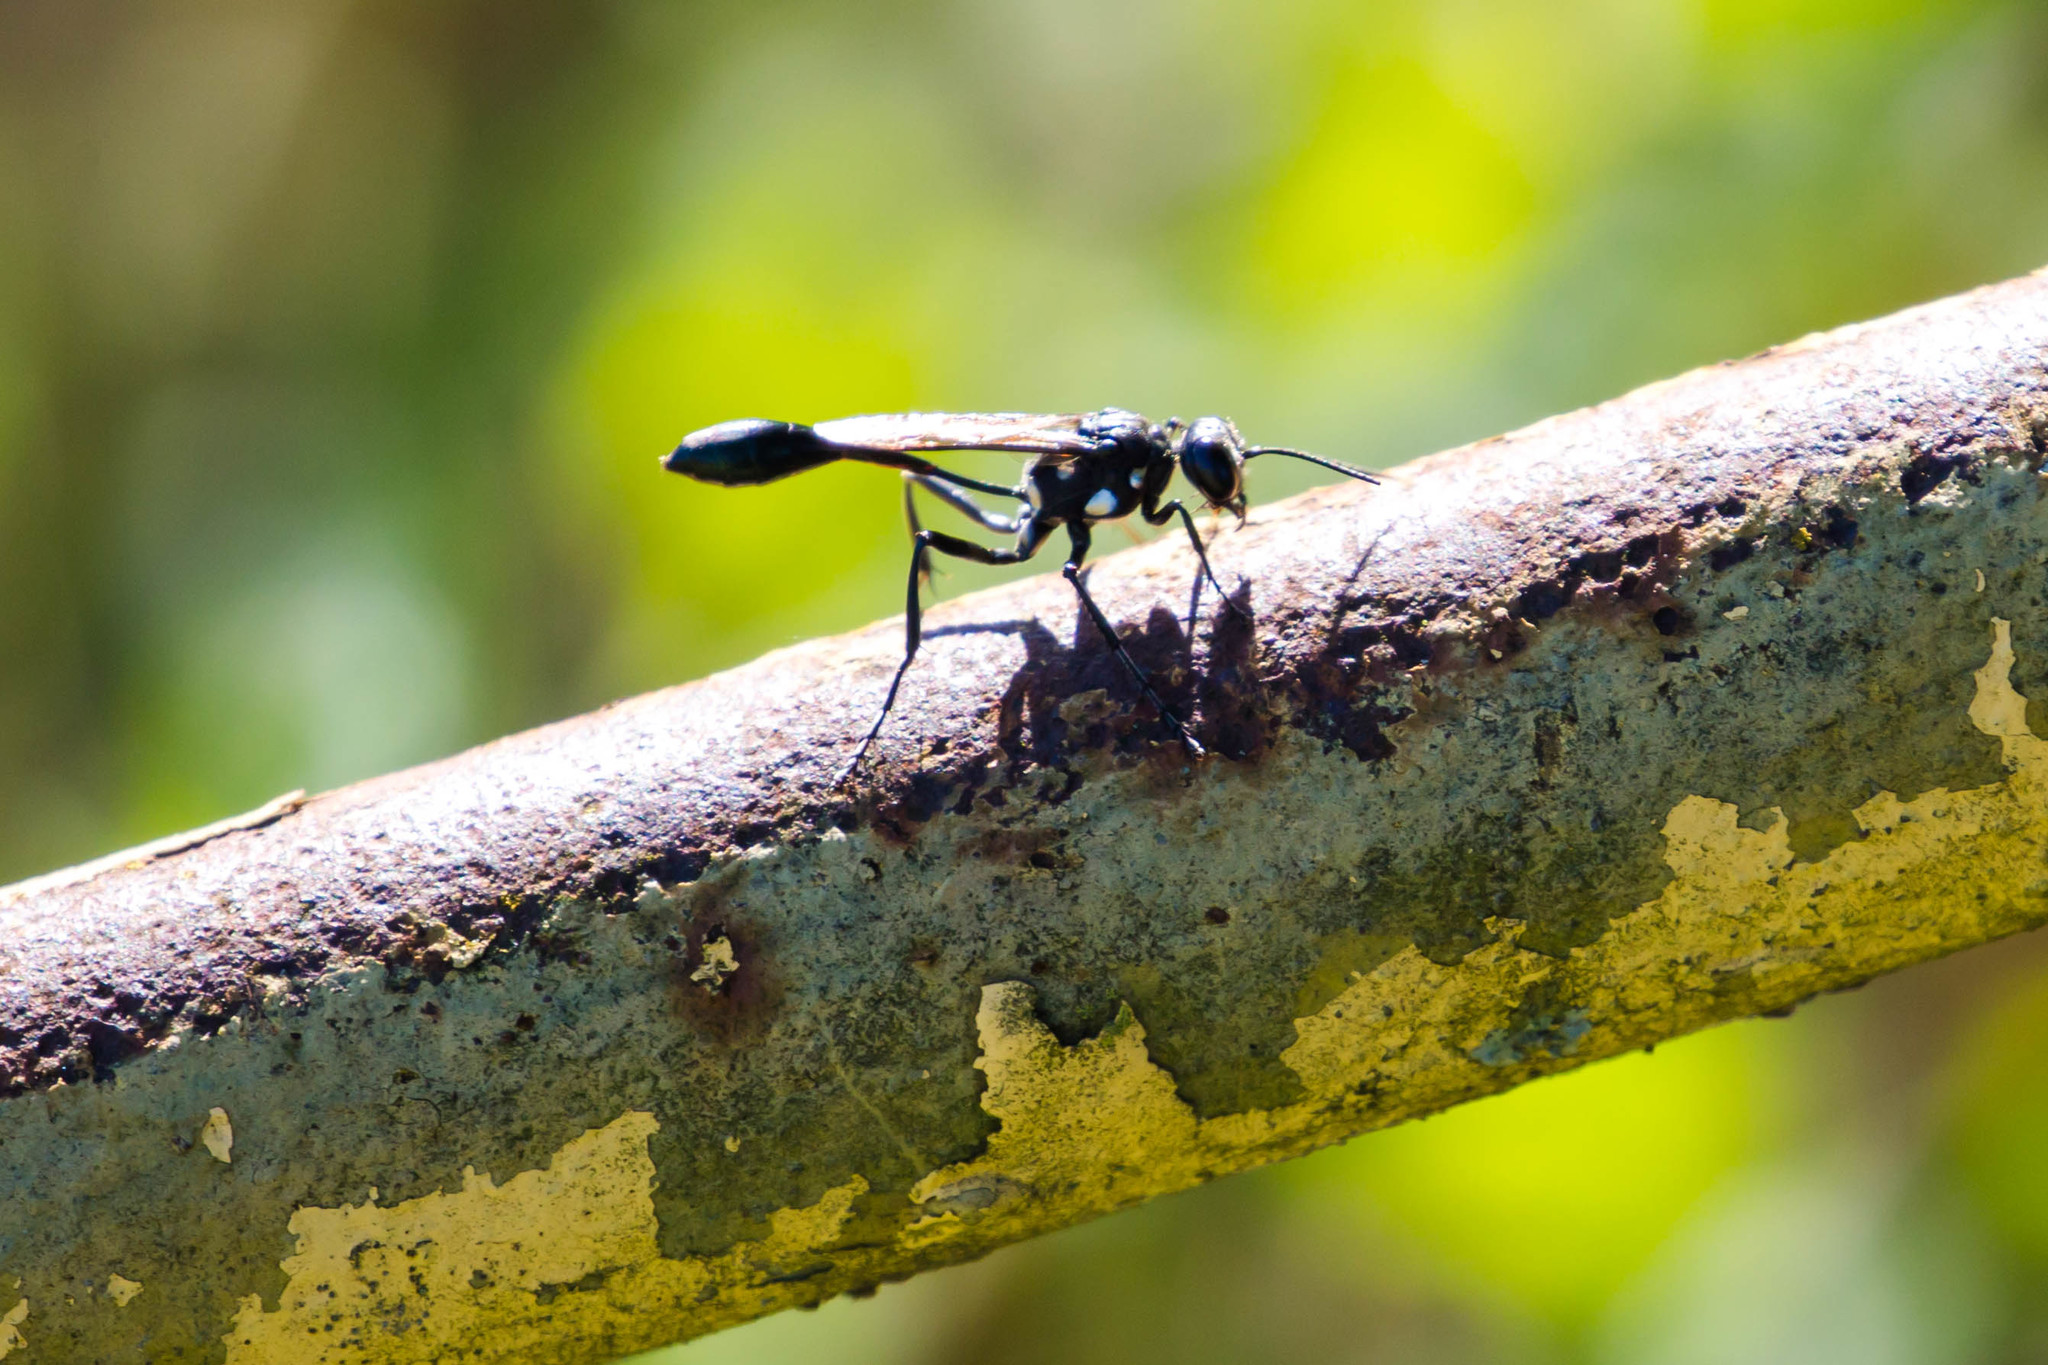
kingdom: Animalia
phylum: Arthropoda
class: Insecta
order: Hymenoptera
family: Sphecidae
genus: Eremnophila
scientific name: Eremnophila aureonotata
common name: Gold-marked thread-waisted wasp
